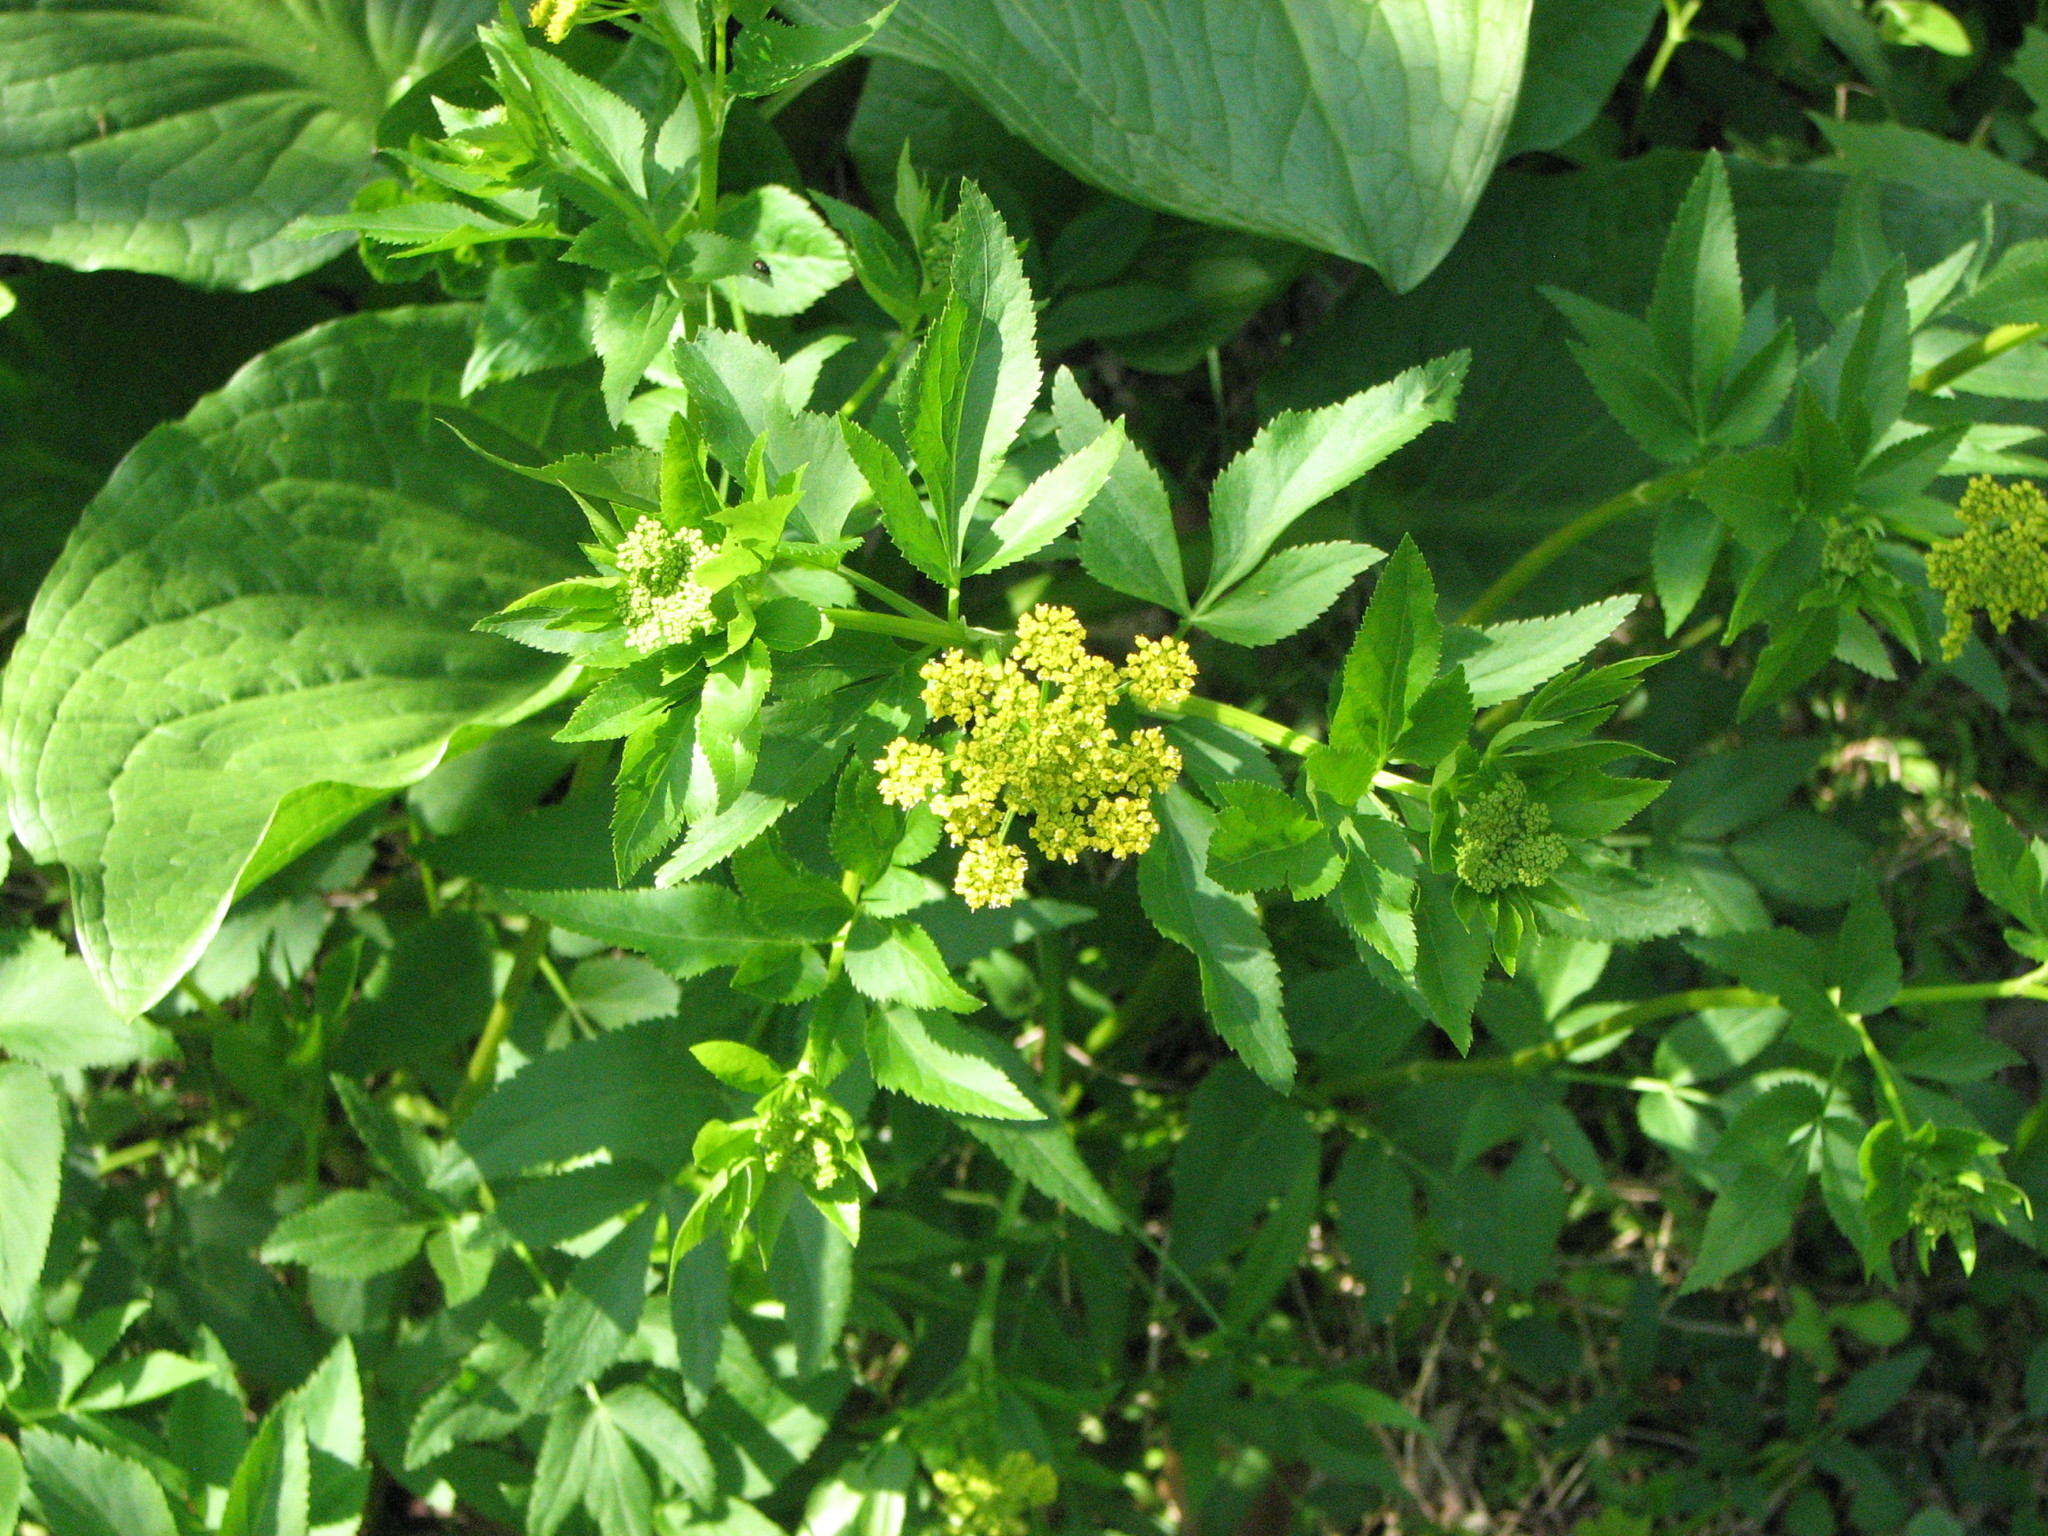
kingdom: Plantae
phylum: Tracheophyta
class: Magnoliopsida
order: Apiales
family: Apiaceae
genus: Zizia
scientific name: Zizia aurea
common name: Golden alexanders
